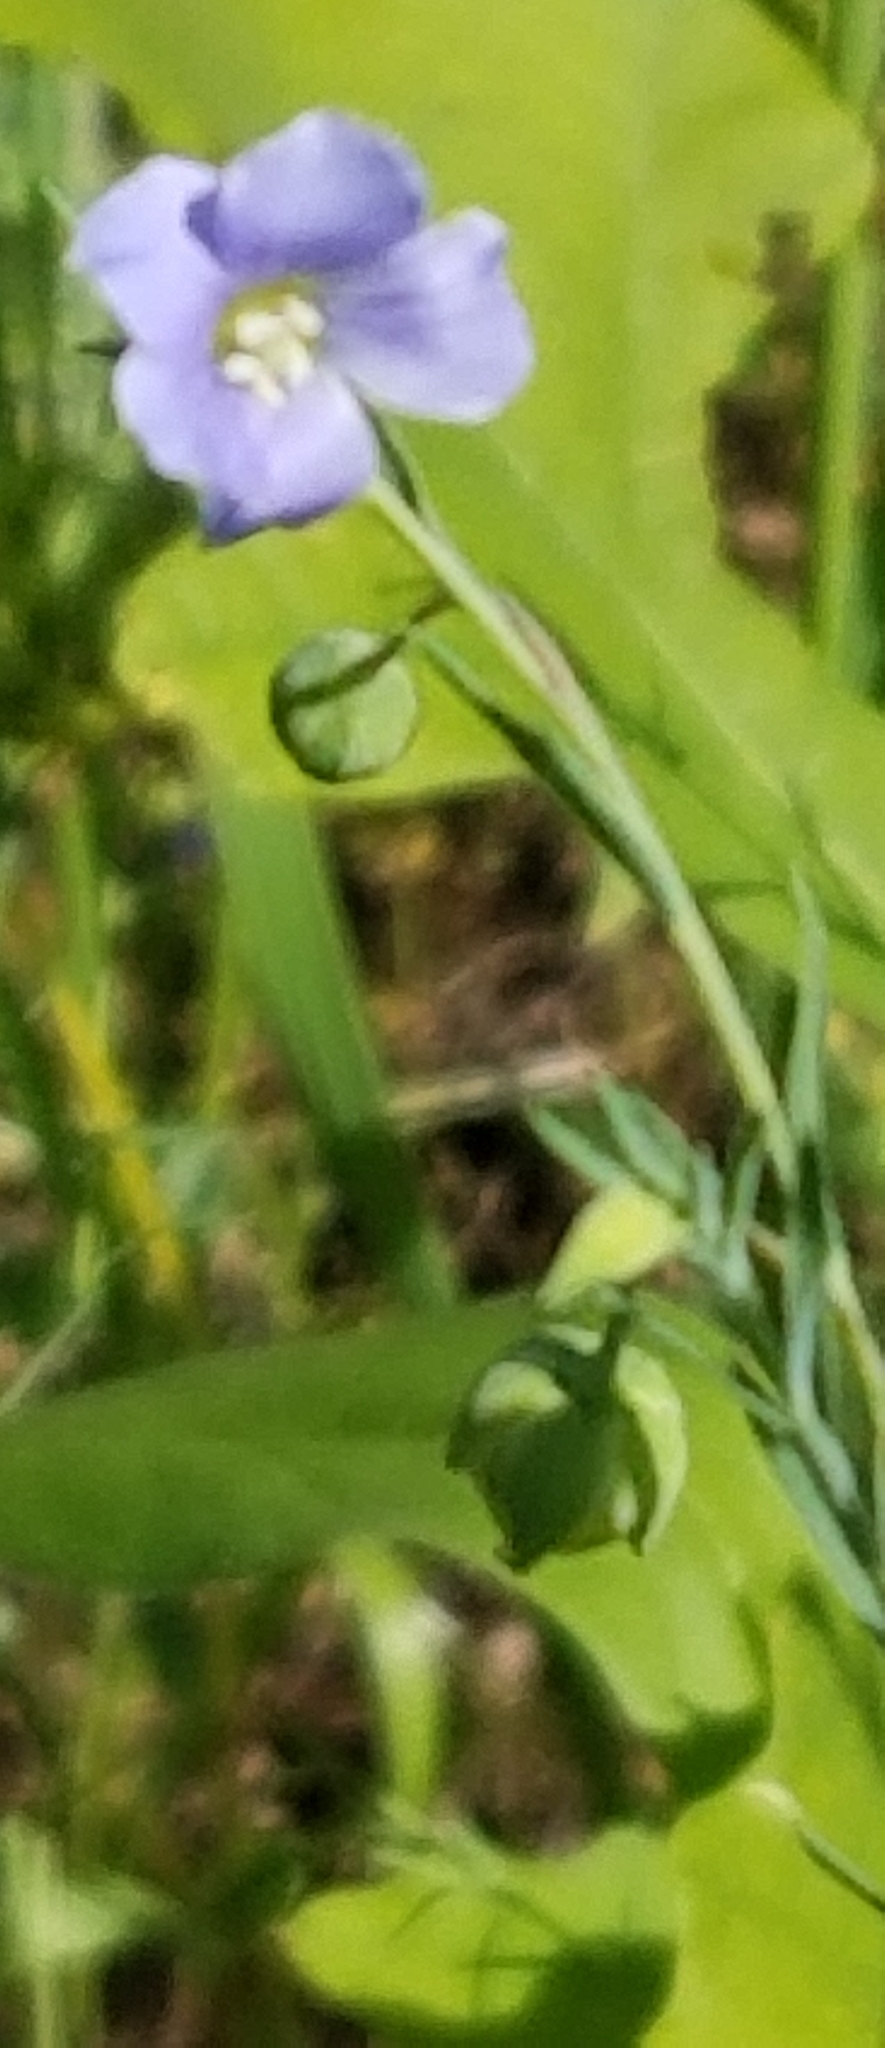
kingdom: Plantae
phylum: Tracheophyta
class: Magnoliopsida
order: Malpighiales
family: Linaceae
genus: Linum
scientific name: Linum pratense
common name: Norton's flax
